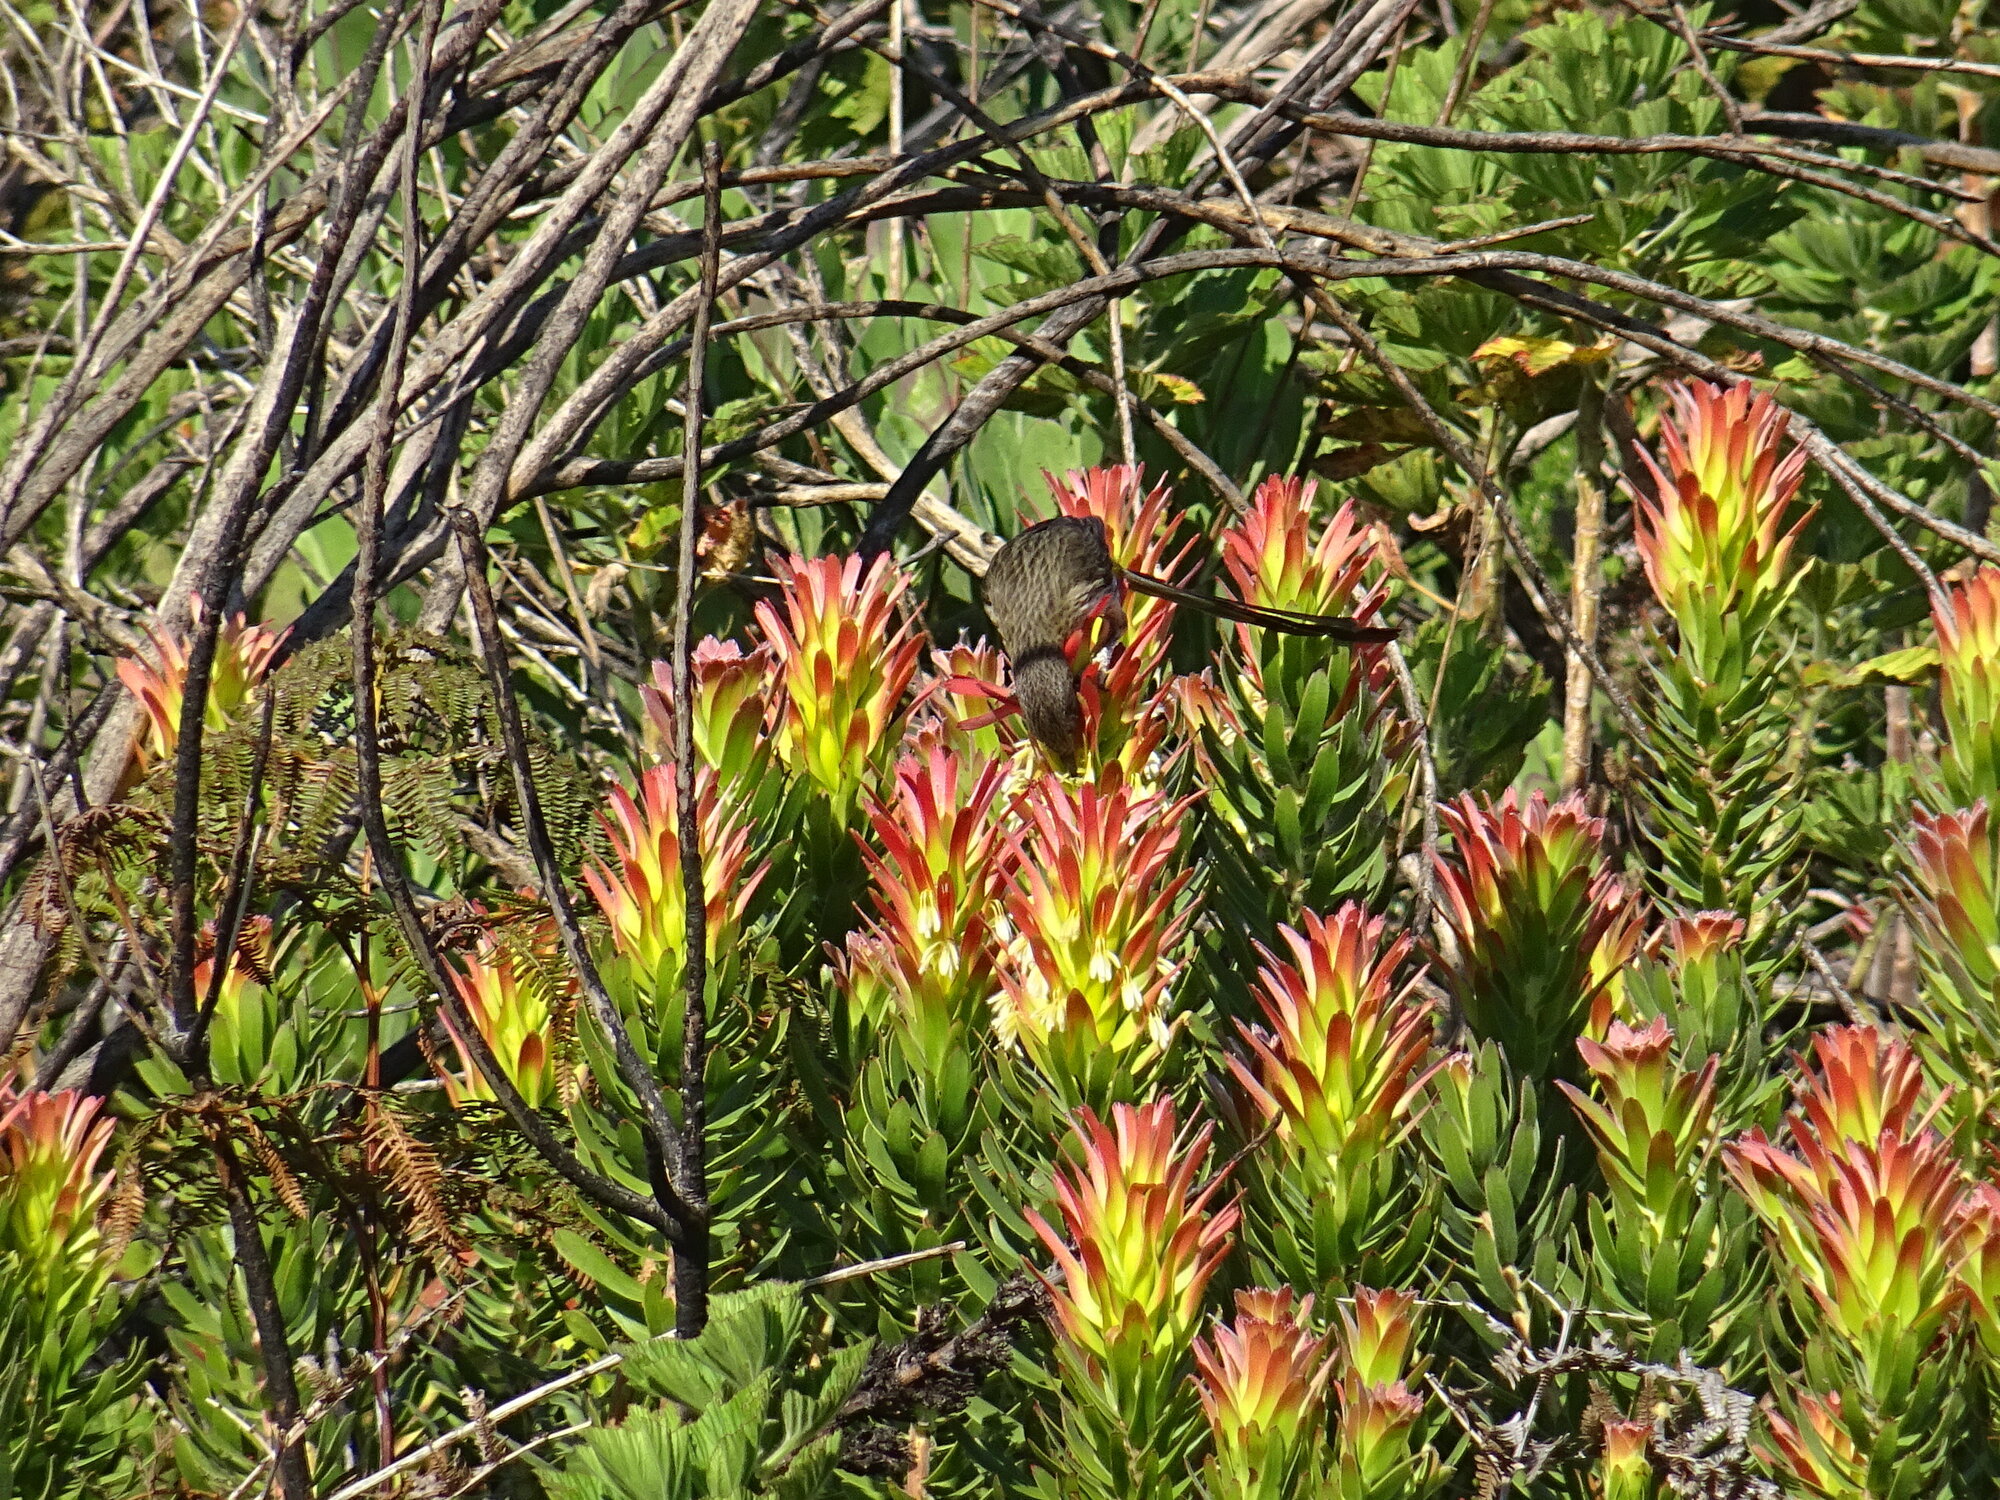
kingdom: Animalia
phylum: Chordata
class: Aves
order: Passeriformes
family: Promeropidae
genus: Promerops
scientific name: Promerops cafer
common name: Cape sugarbird
